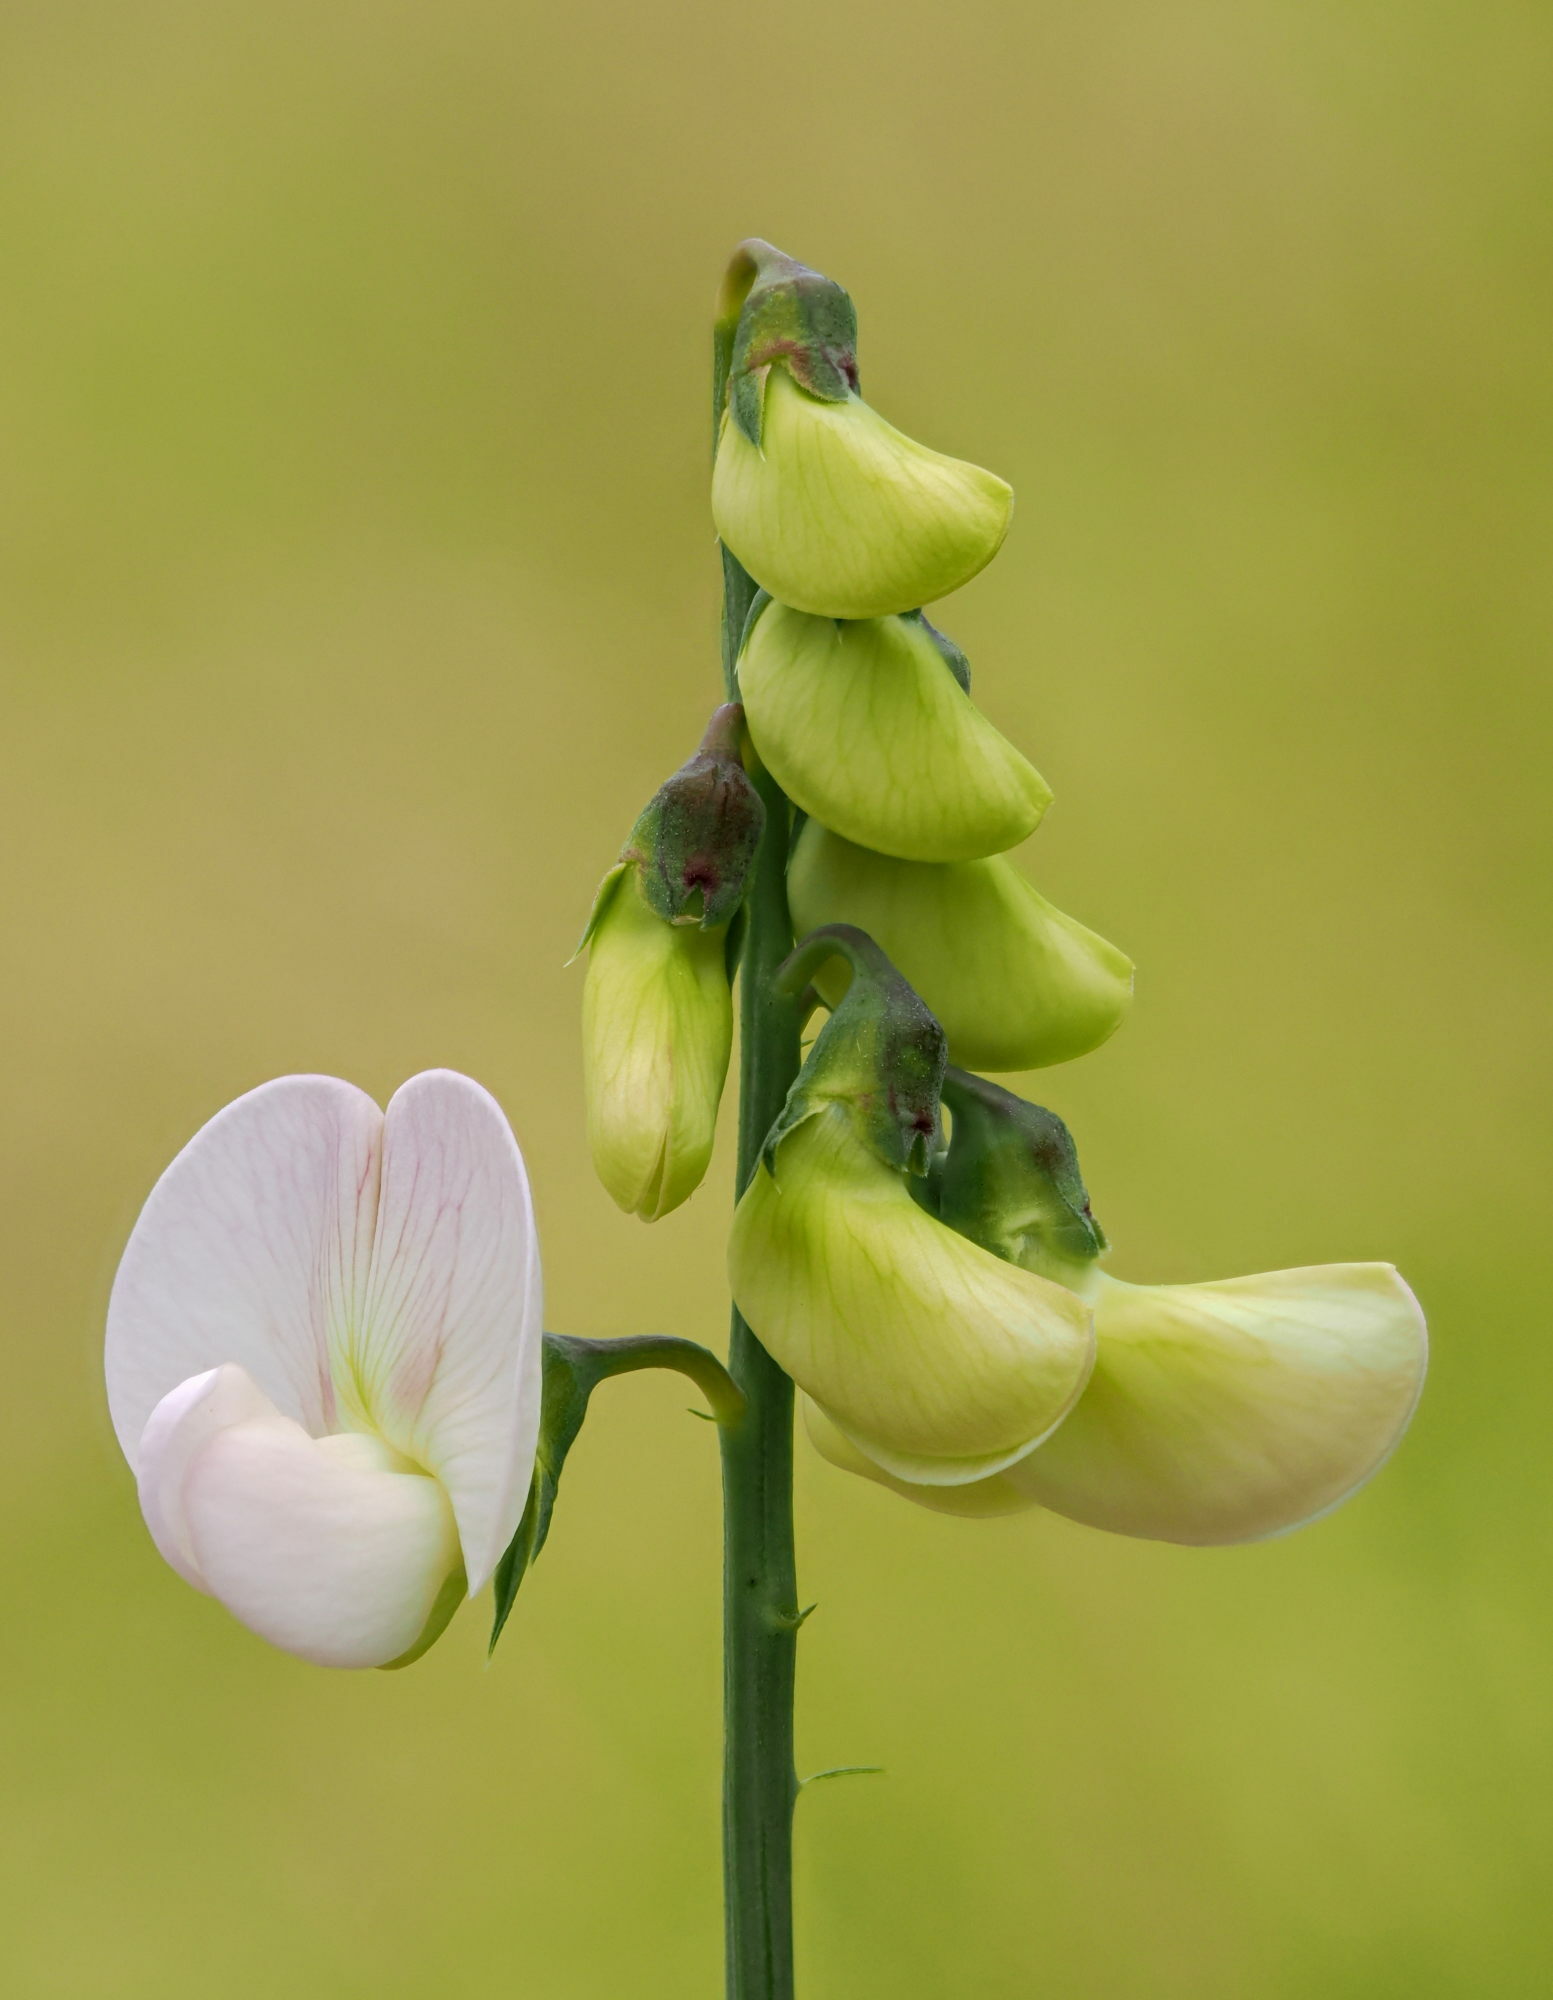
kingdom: Plantae
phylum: Tracheophyta
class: Magnoliopsida
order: Fabales
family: Fabaceae
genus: Lathyrus
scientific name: Lathyrus latifolius
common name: Perennial pea
